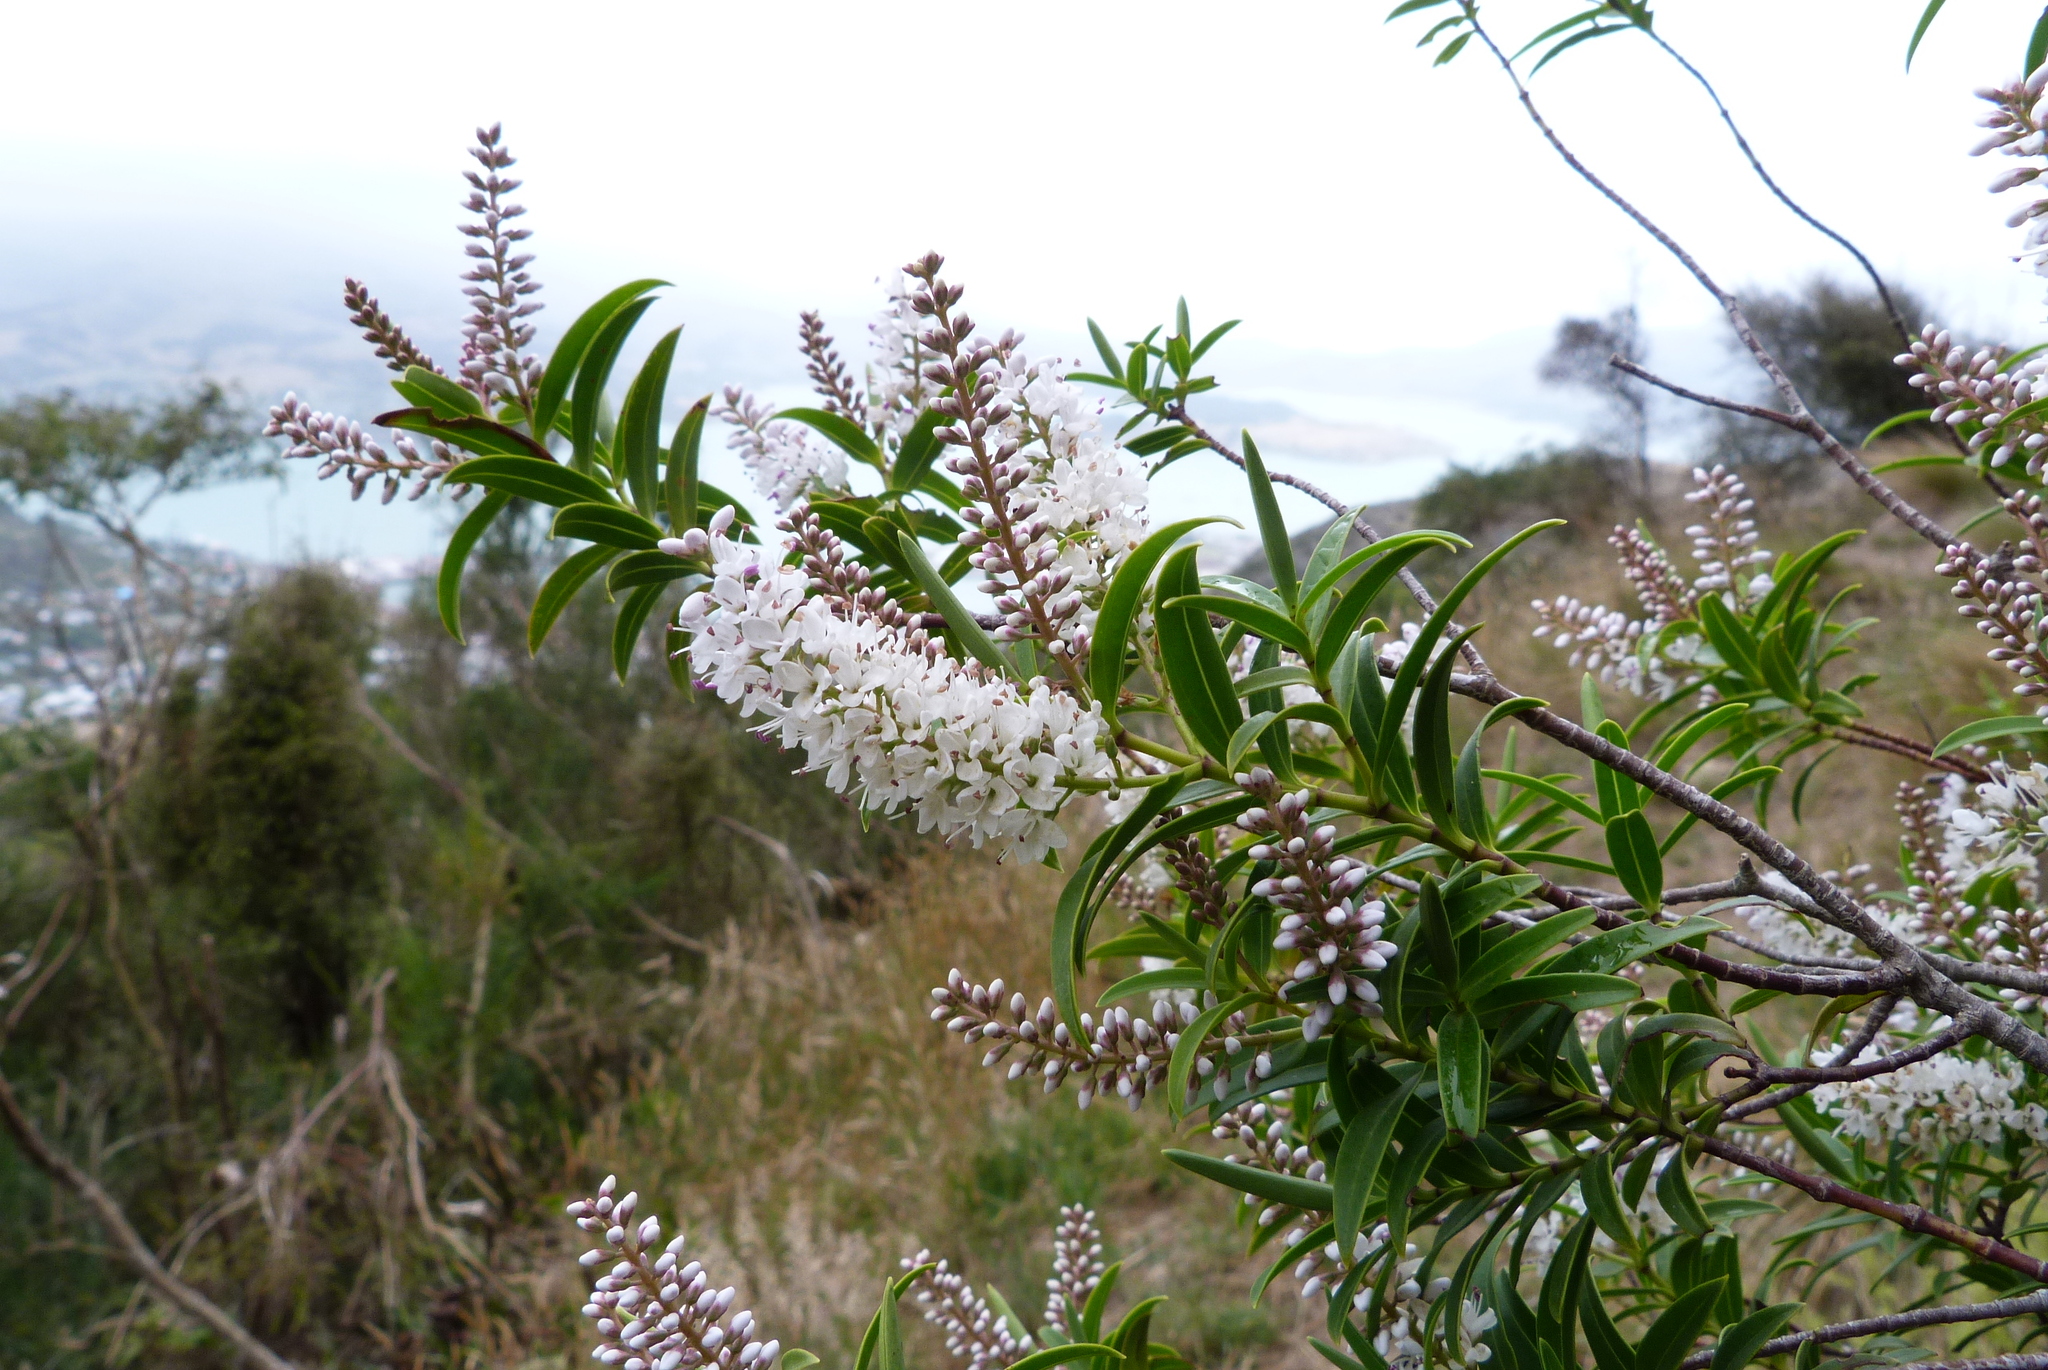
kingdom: Plantae
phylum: Tracheophyta
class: Magnoliopsida
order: Lamiales
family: Plantaginaceae
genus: Veronica
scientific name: Veronica strictissima
